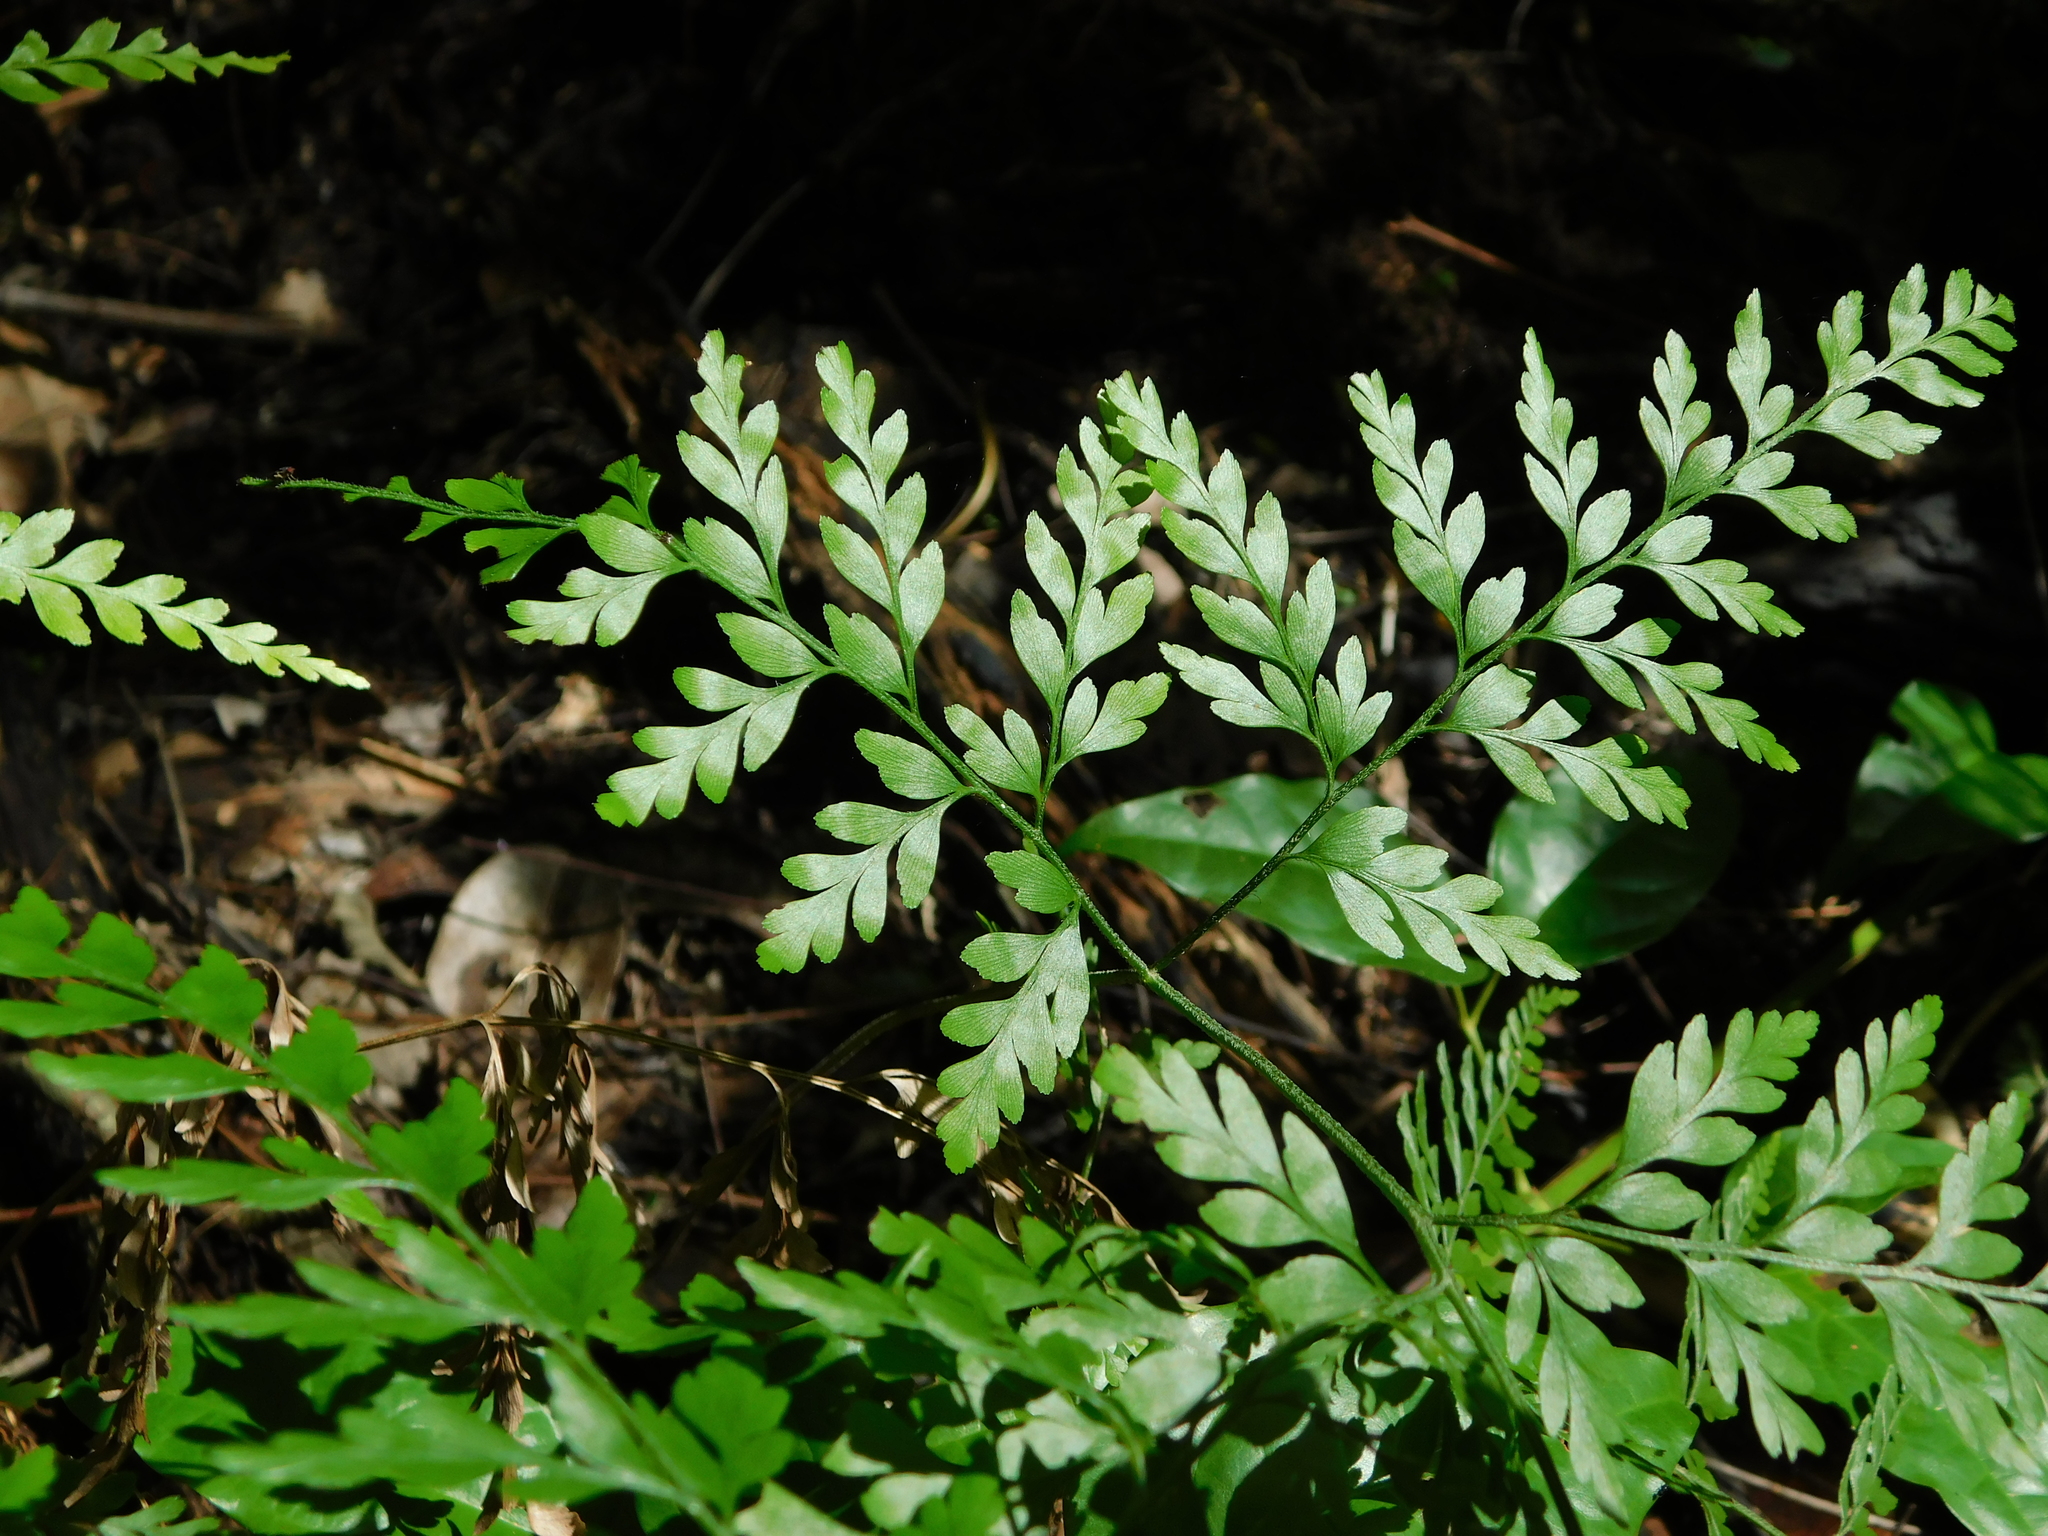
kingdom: Plantae
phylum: Tracheophyta
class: Polypodiopsida
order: Schizaeales
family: Anemiaceae
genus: Anemia
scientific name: Anemia adiantifolia
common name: Pine fern
